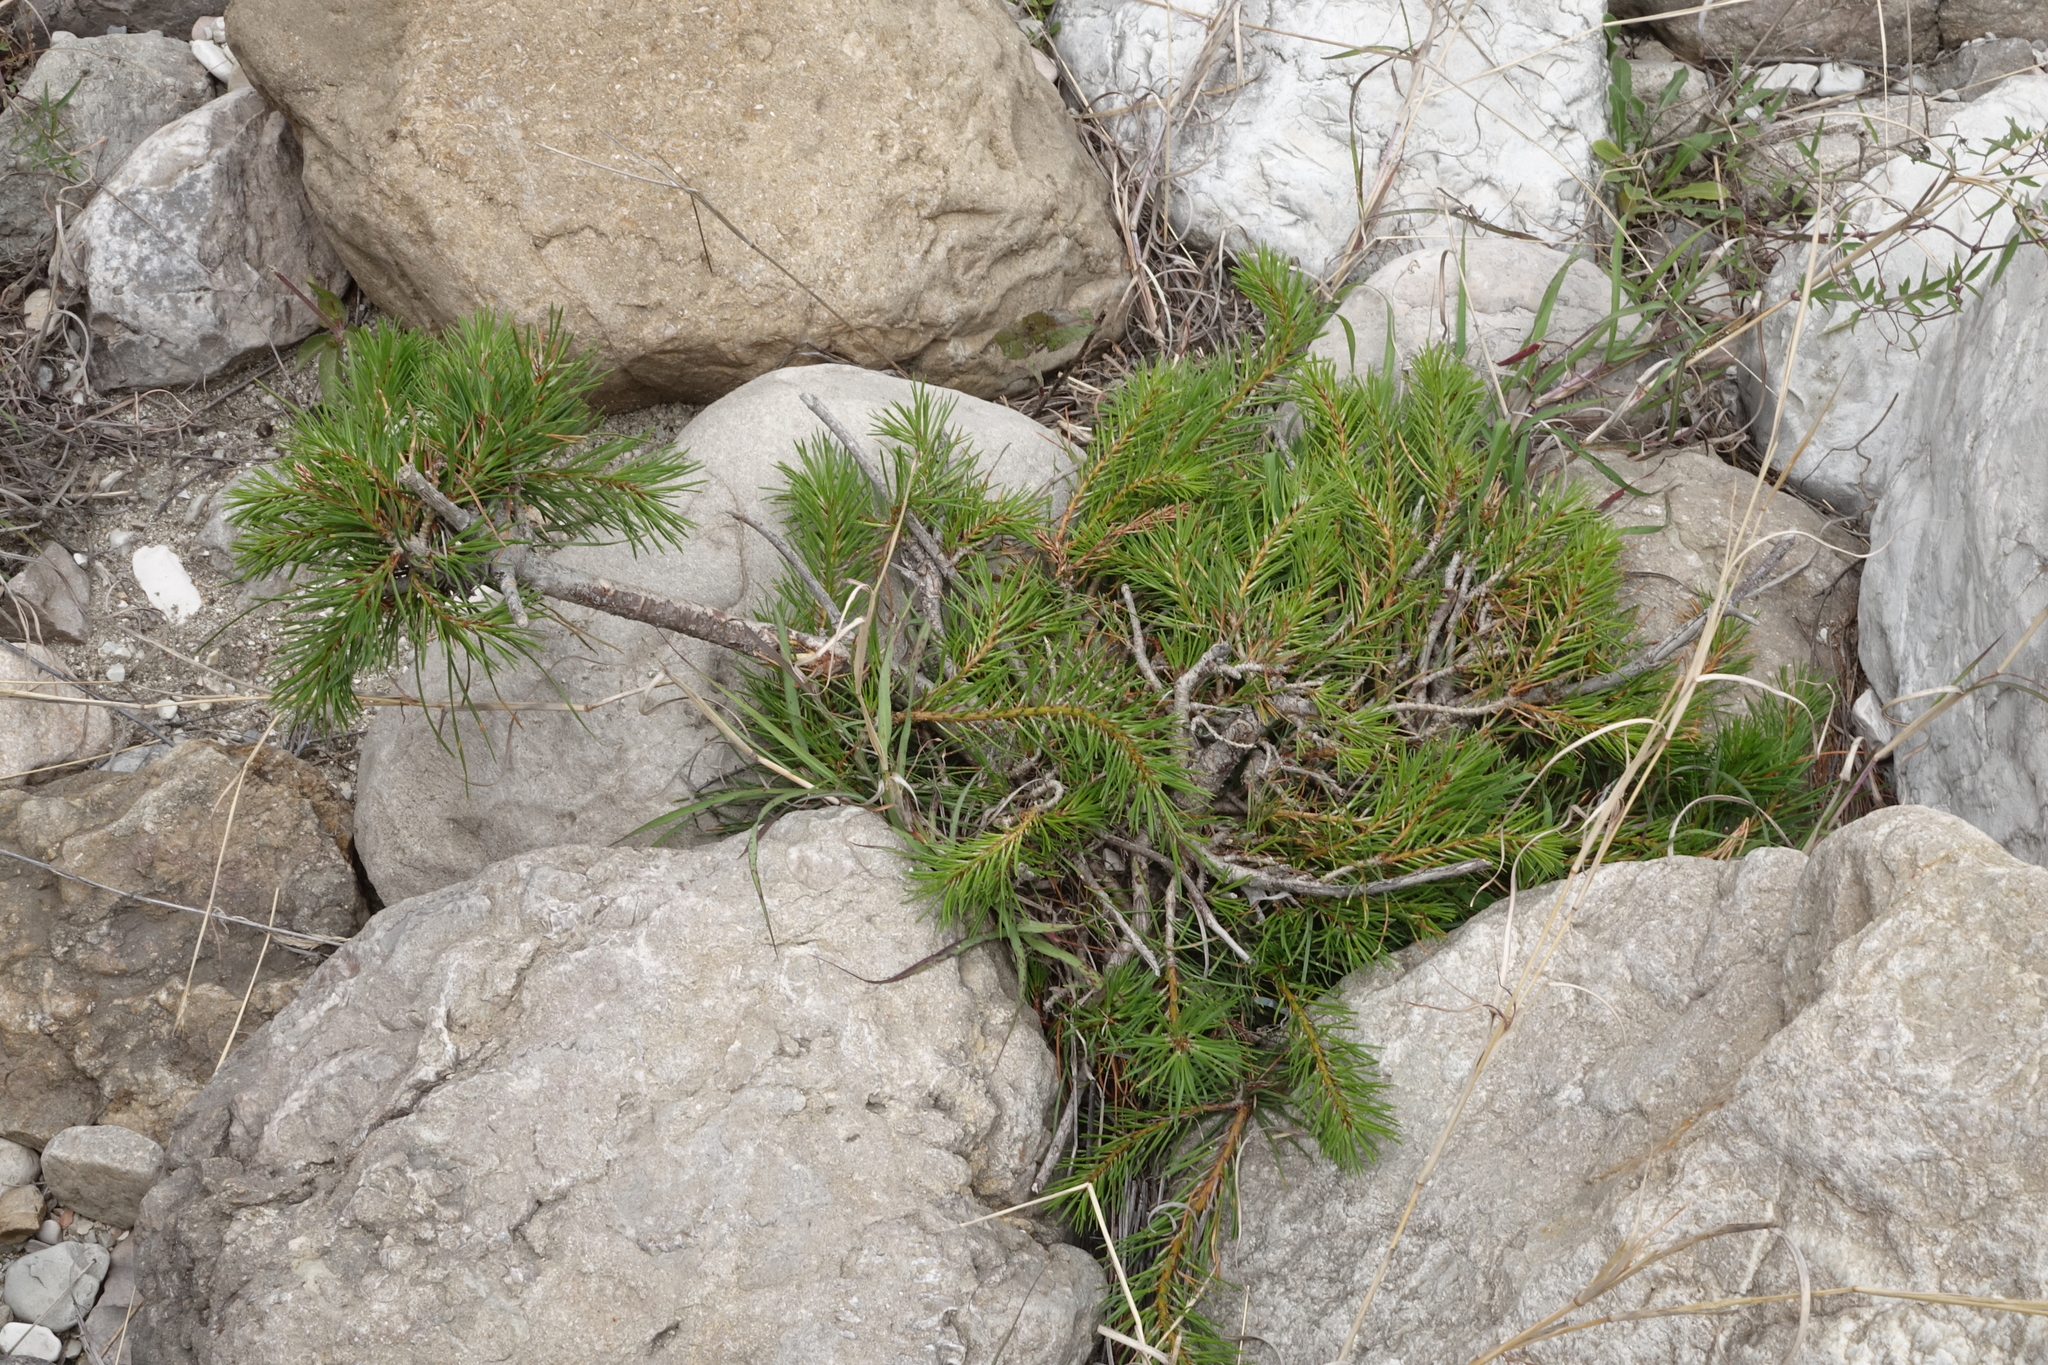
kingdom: Plantae
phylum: Tracheophyta
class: Pinopsida
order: Pinales
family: Pinaceae
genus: Pinus
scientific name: Pinus sylvestris
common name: Scots pine
